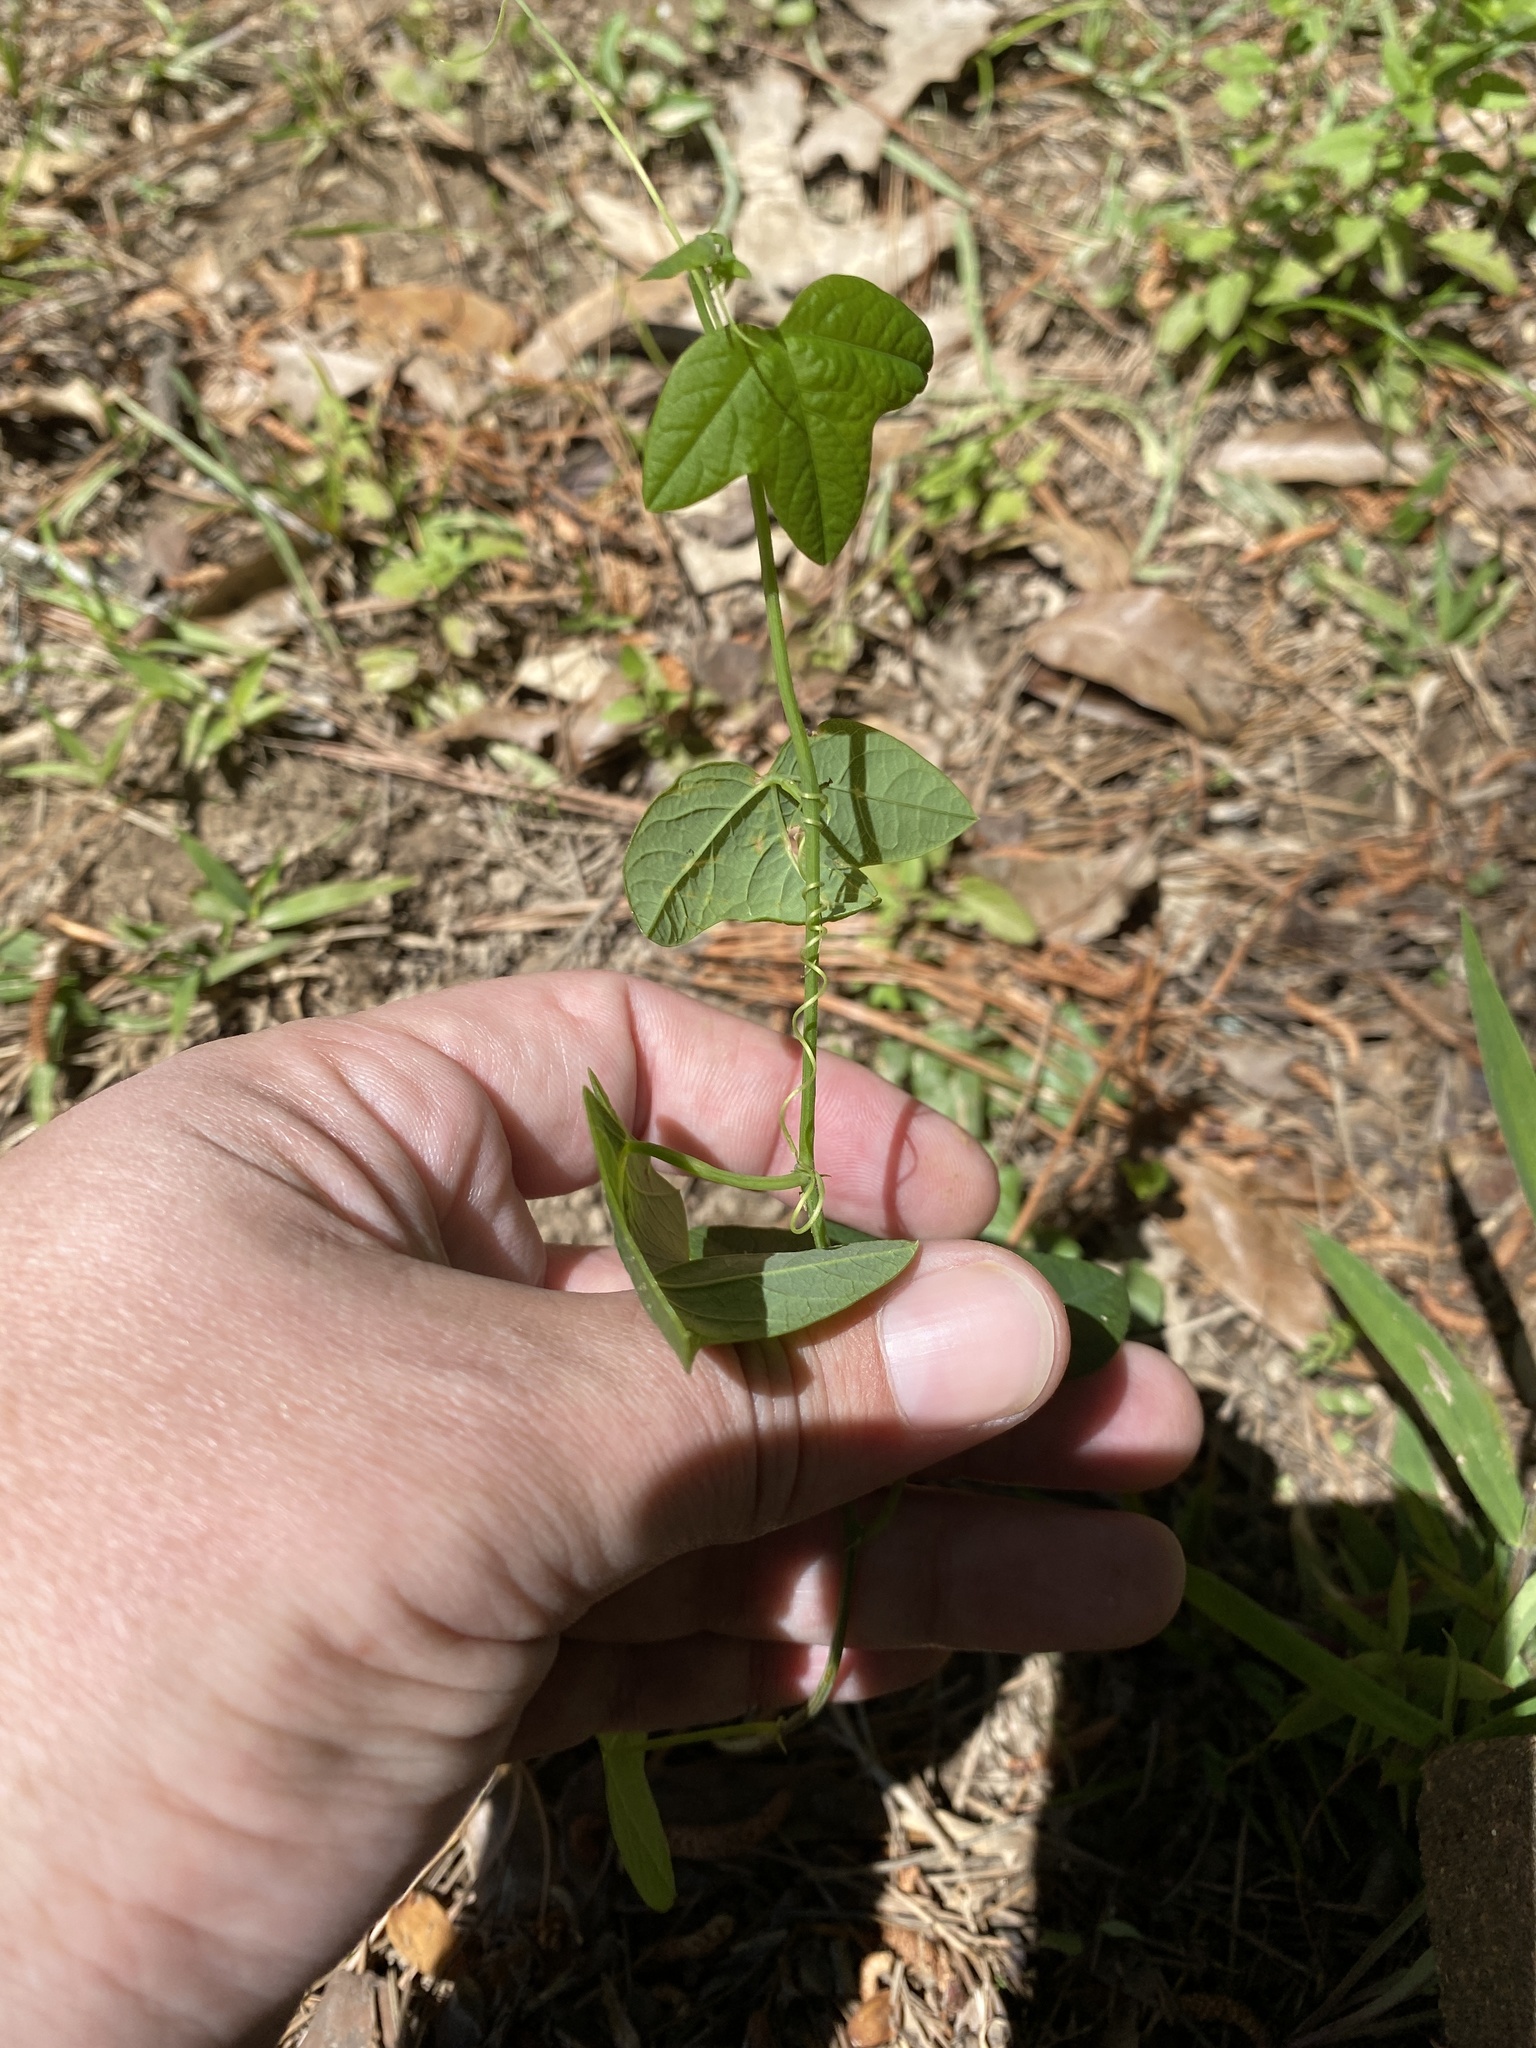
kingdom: Plantae
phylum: Tracheophyta
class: Magnoliopsida
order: Malpighiales
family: Passifloraceae
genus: Passiflora
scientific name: Passiflora lutea
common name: Yellow passionflower
